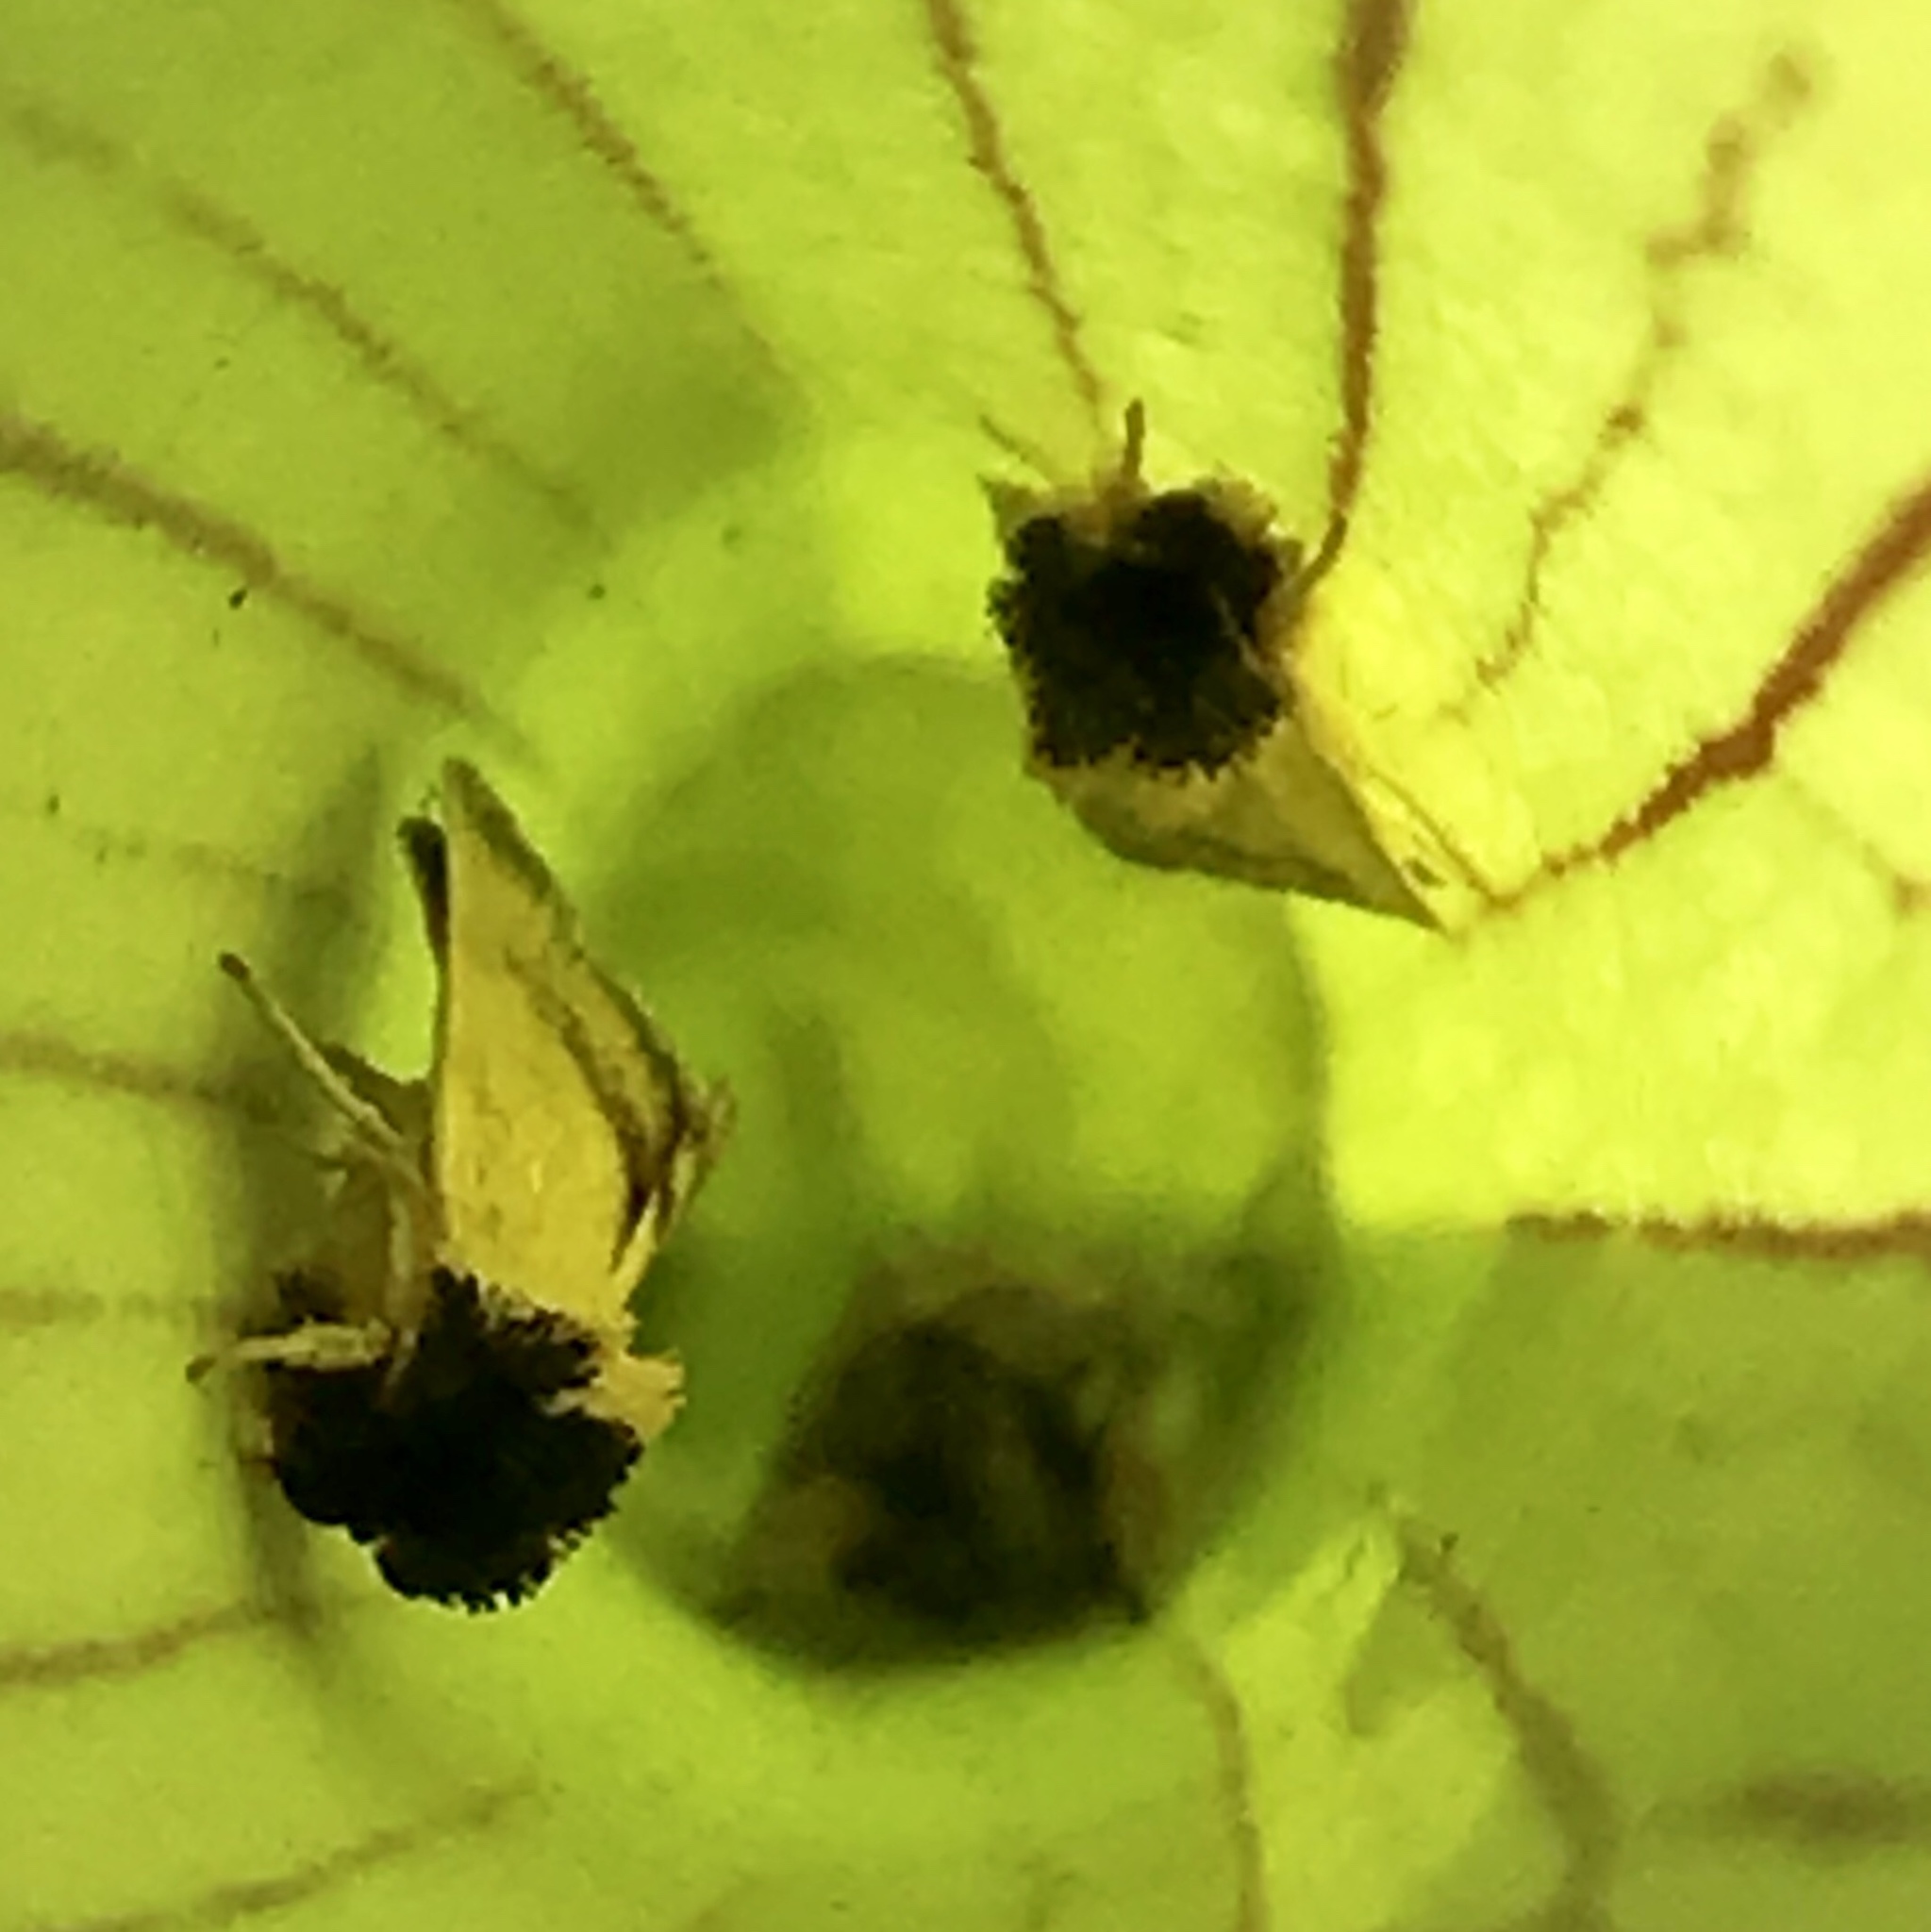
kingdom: Animalia
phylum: Arthropoda
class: Insecta
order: Lepidoptera
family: Noctuidae
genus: Exyra
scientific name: Exyra semicrocea
